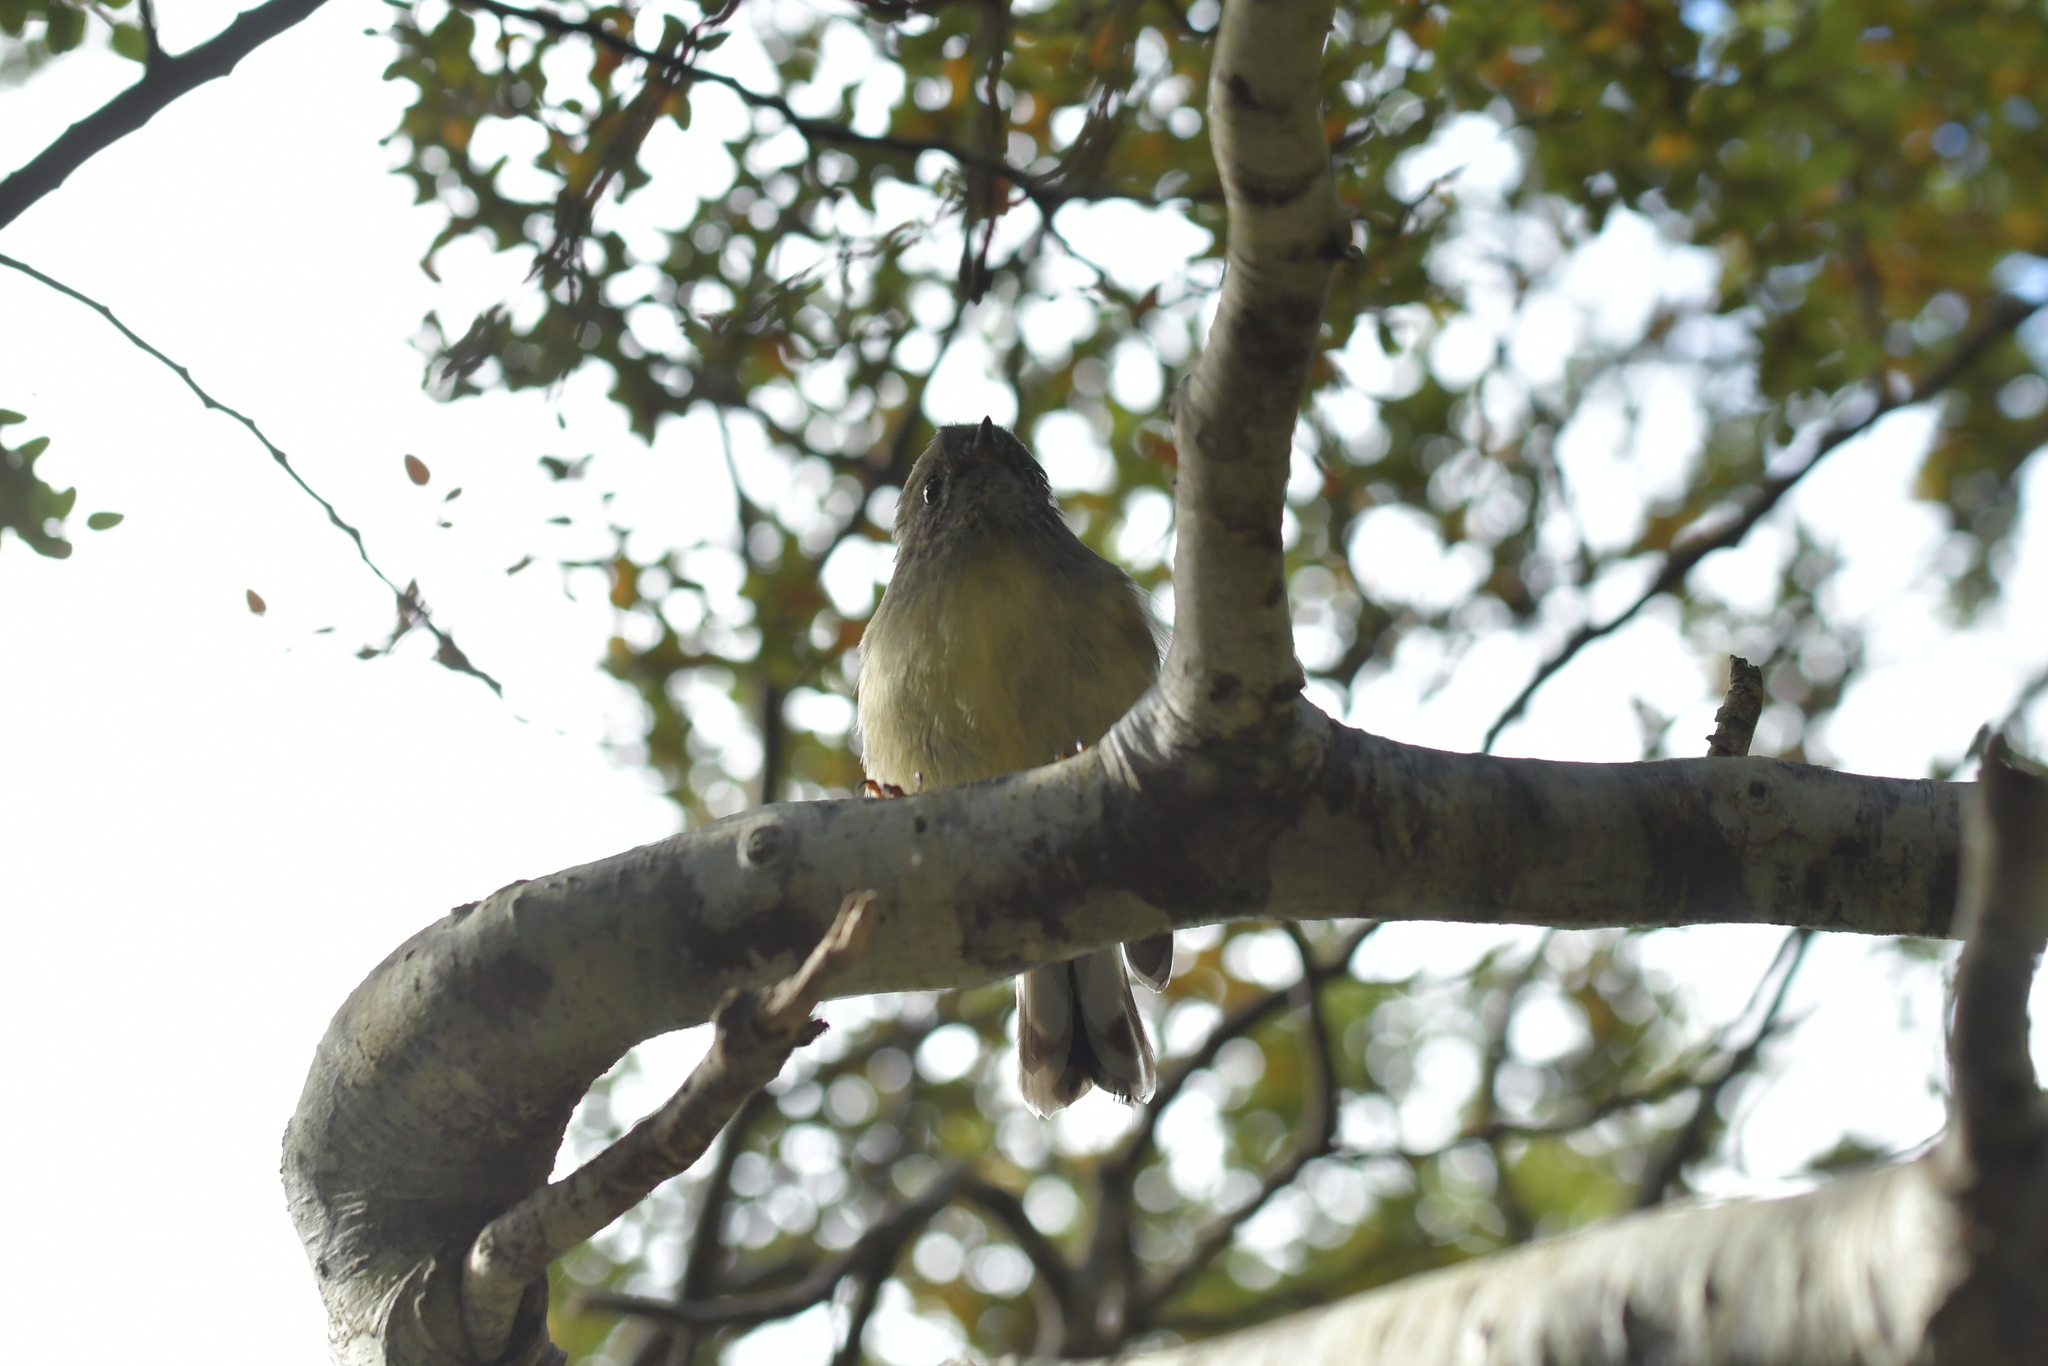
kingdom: Animalia
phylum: Chordata
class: Aves
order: Passeriformes
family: Petroicidae
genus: Petroica
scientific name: Petroica macrocephala
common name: Tomtit
